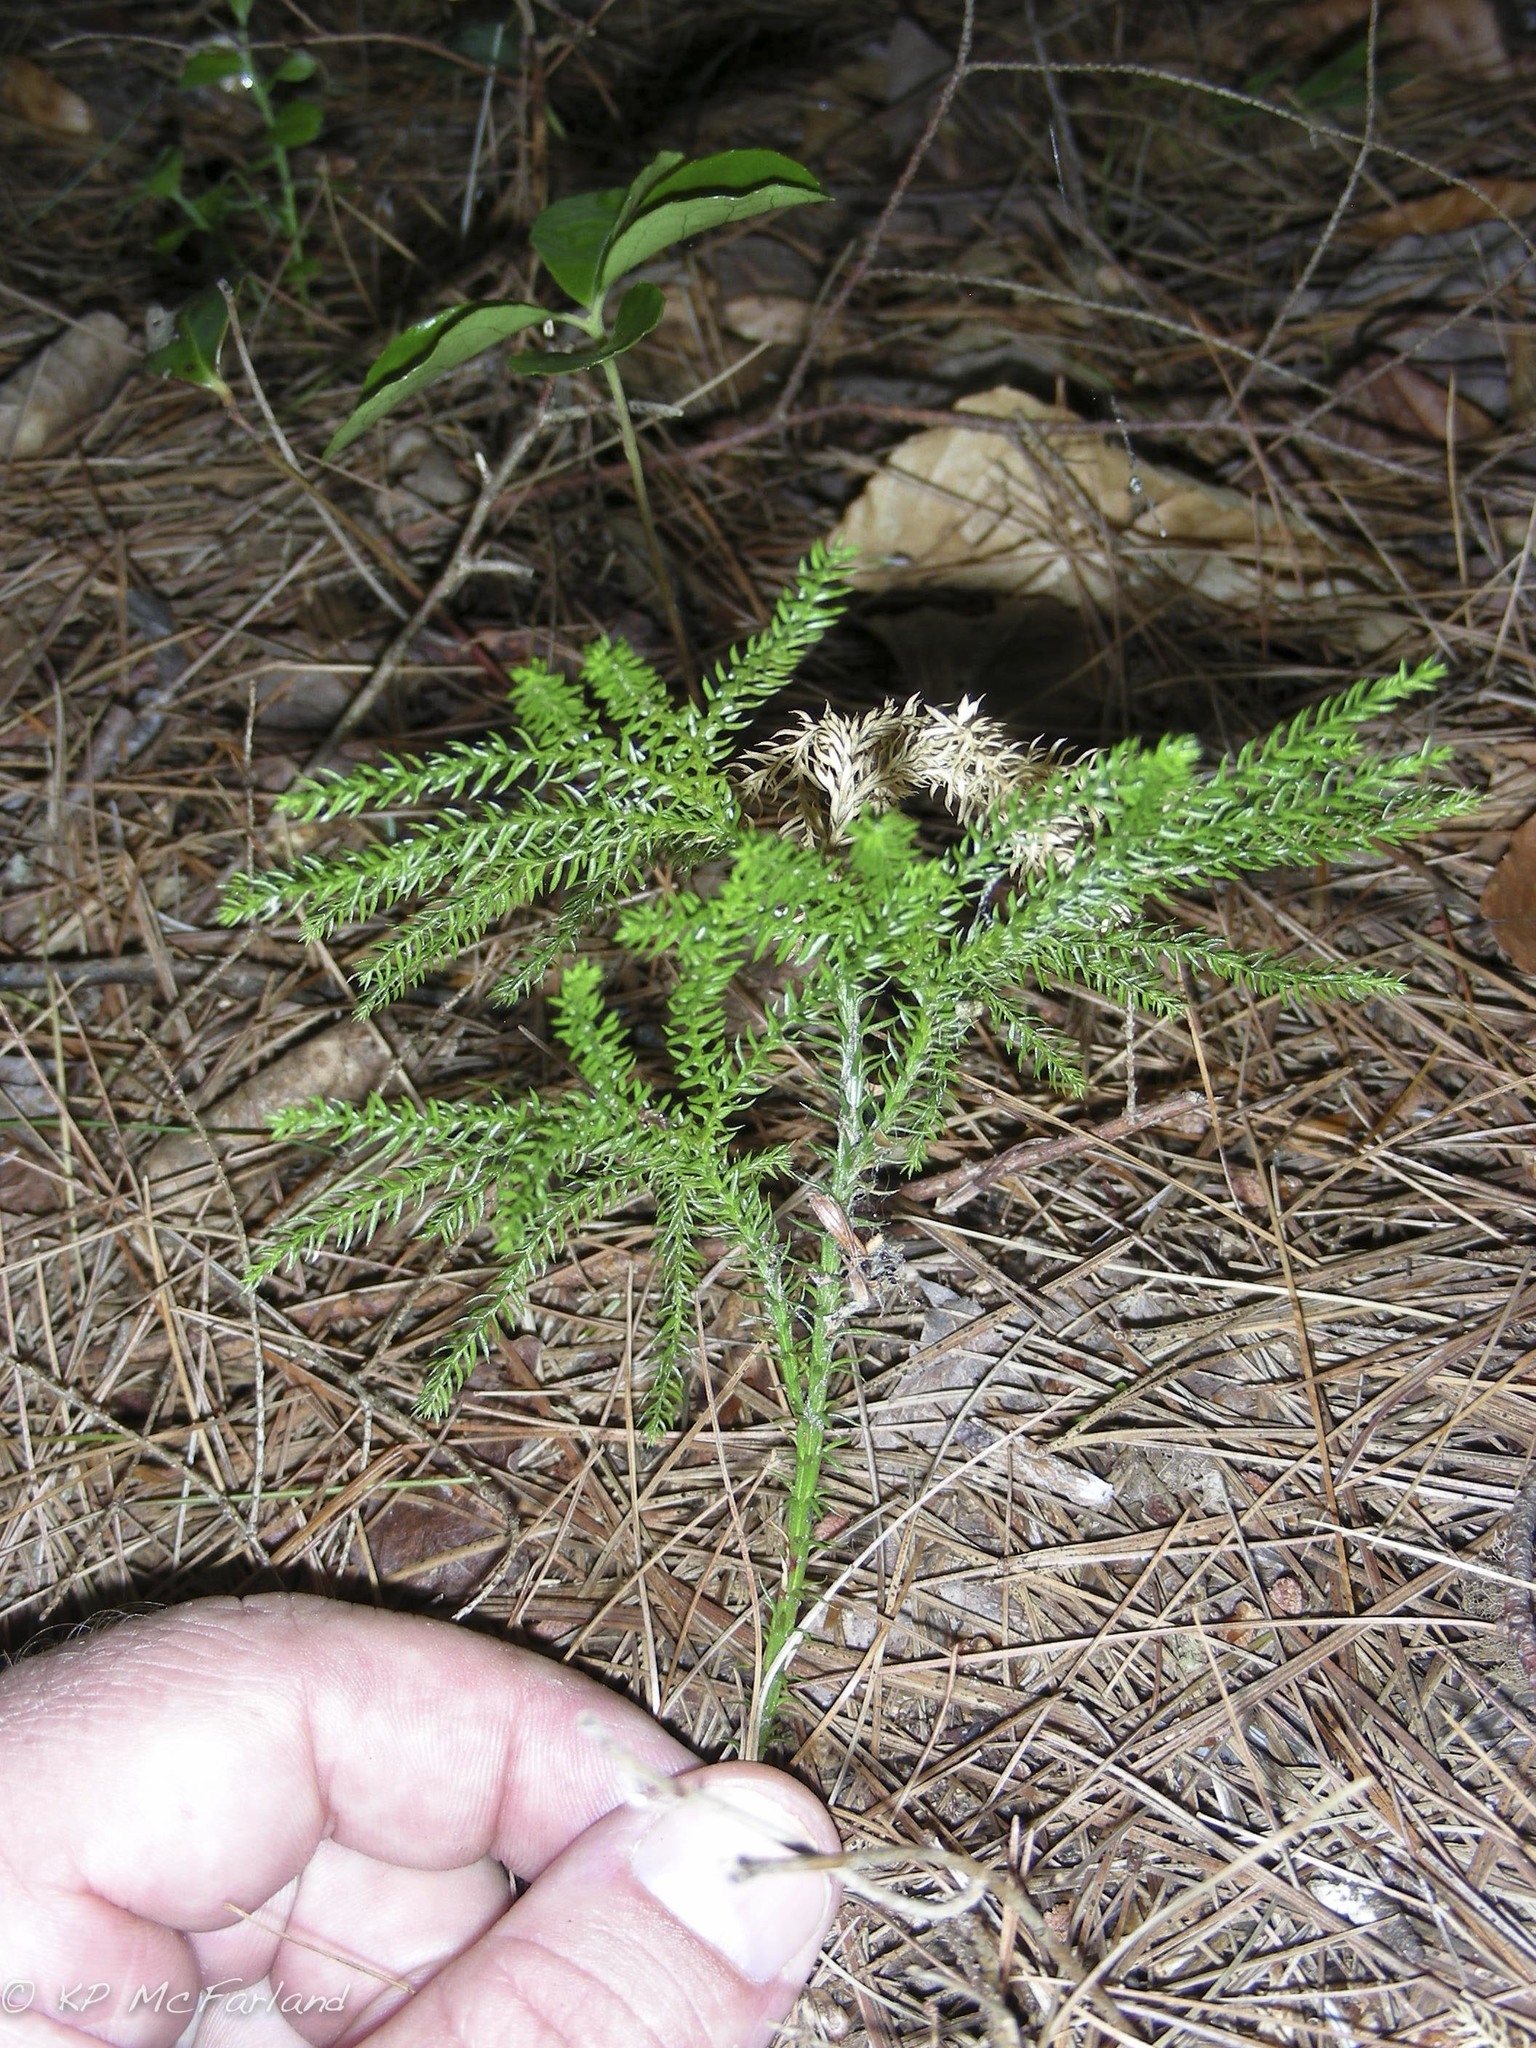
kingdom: Plantae
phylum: Tracheophyta
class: Lycopodiopsida
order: Lycopodiales
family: Lycopodiaceae
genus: Dendrolycopodium
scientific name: Dendrolycopodium dendroideum
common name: Northern tree-clubmoss
